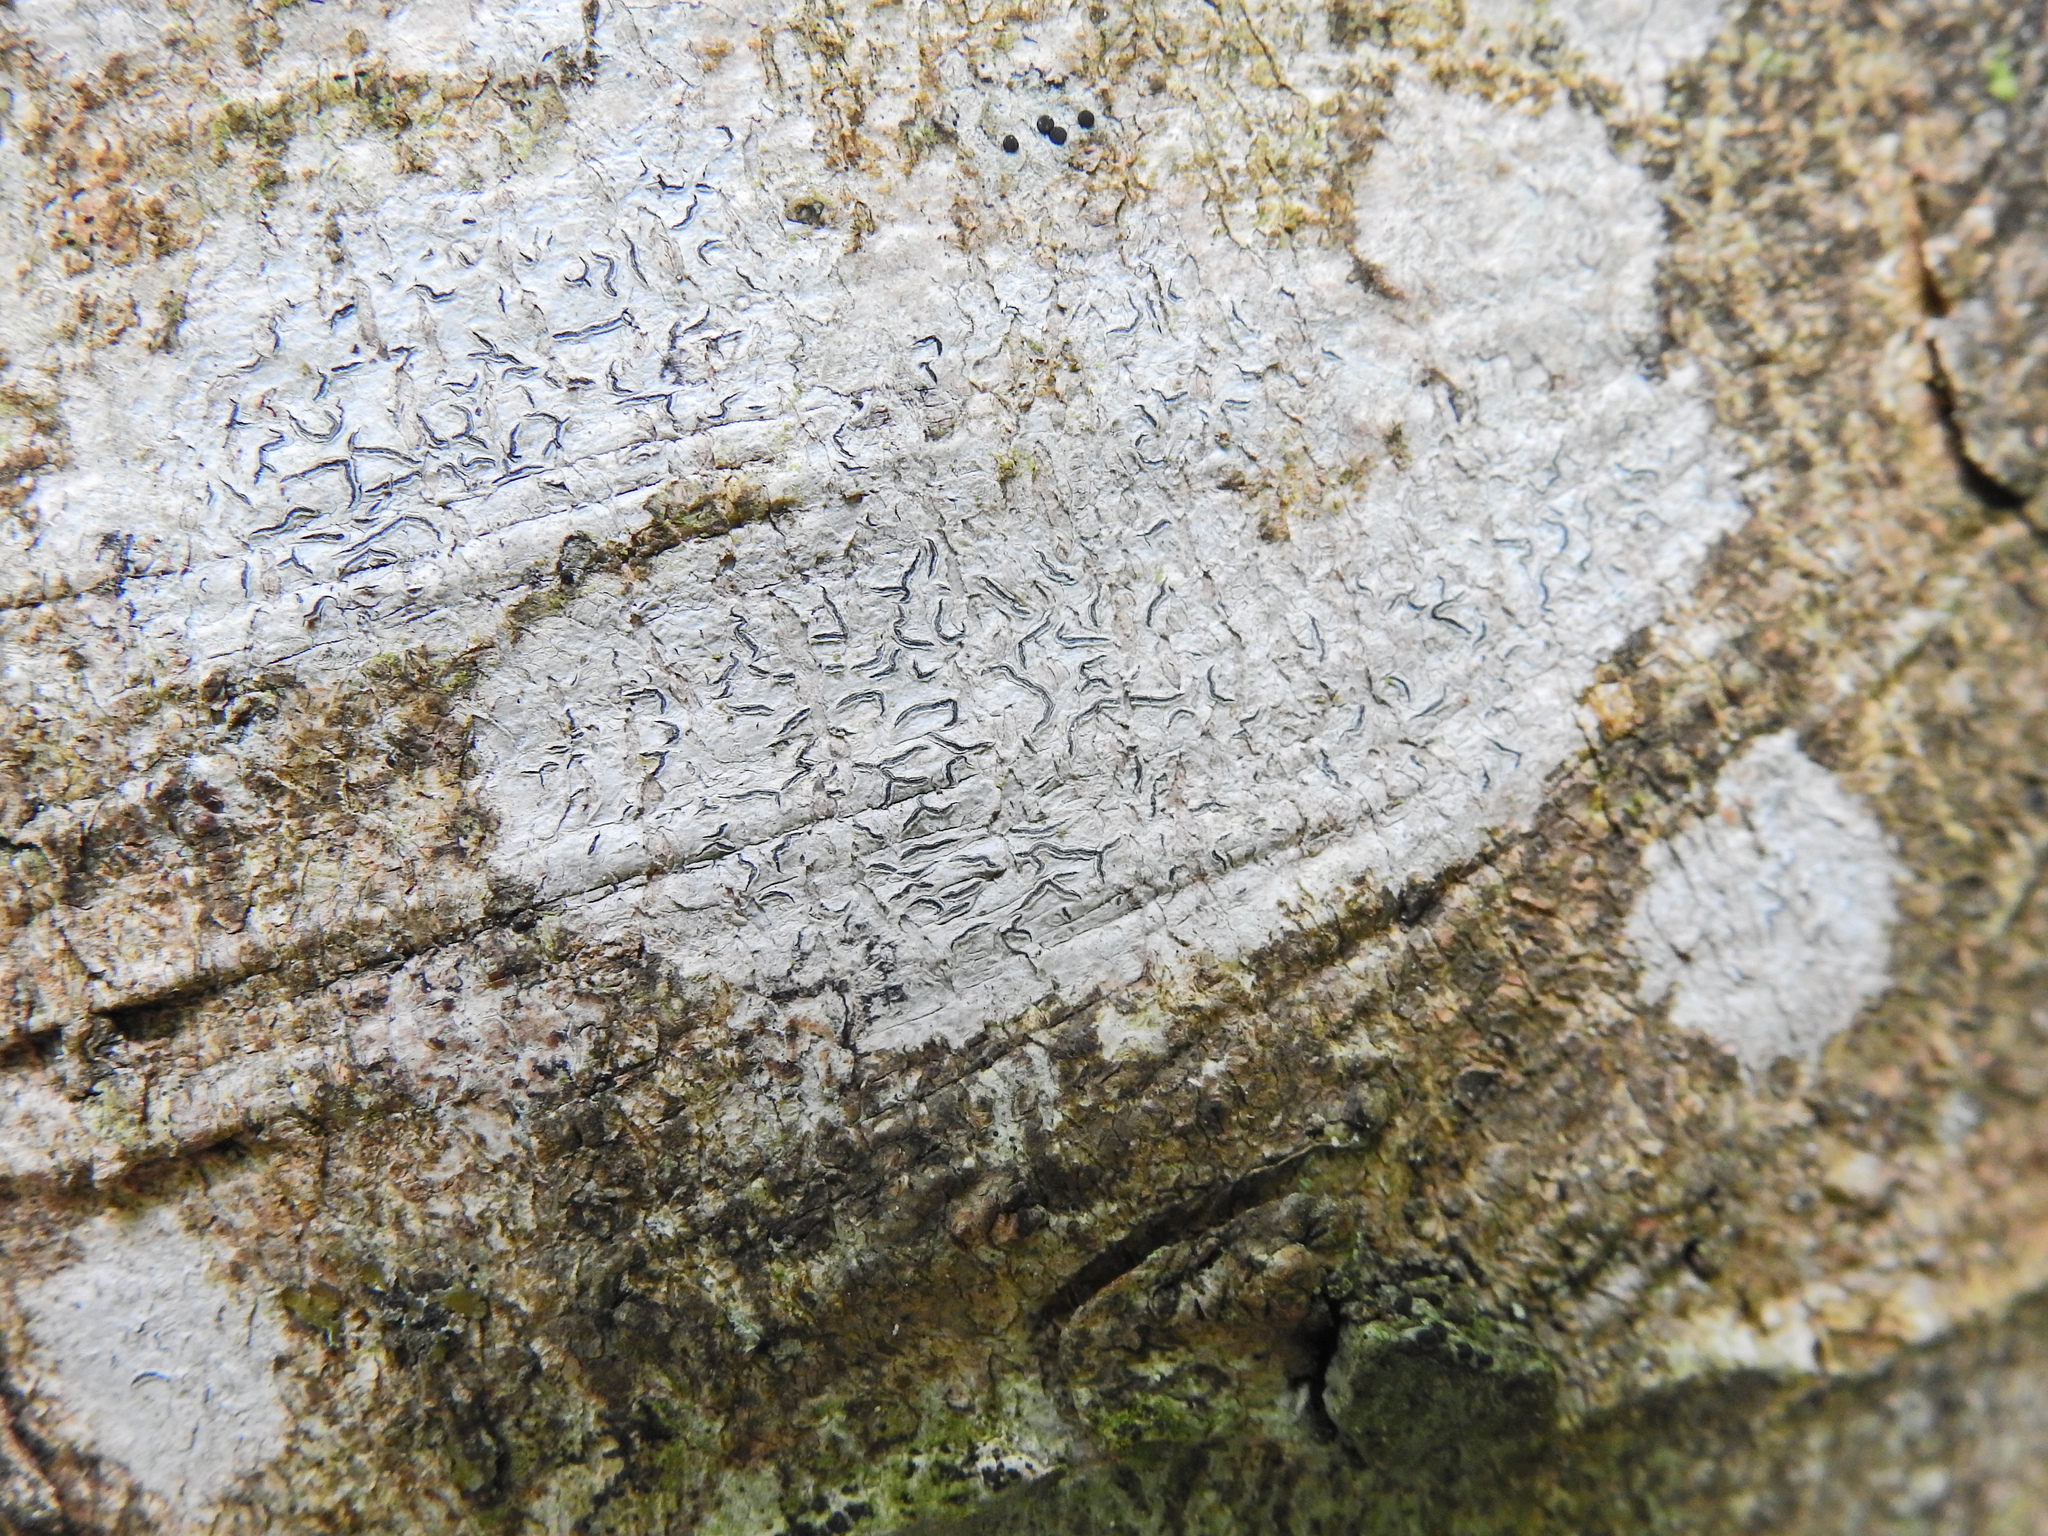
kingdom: Fungi
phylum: Ascomycota
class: Lecanoromycetes
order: Ostropales
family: Graphidaceae
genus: Graphis
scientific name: Graphis scripta
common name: Script lichen
